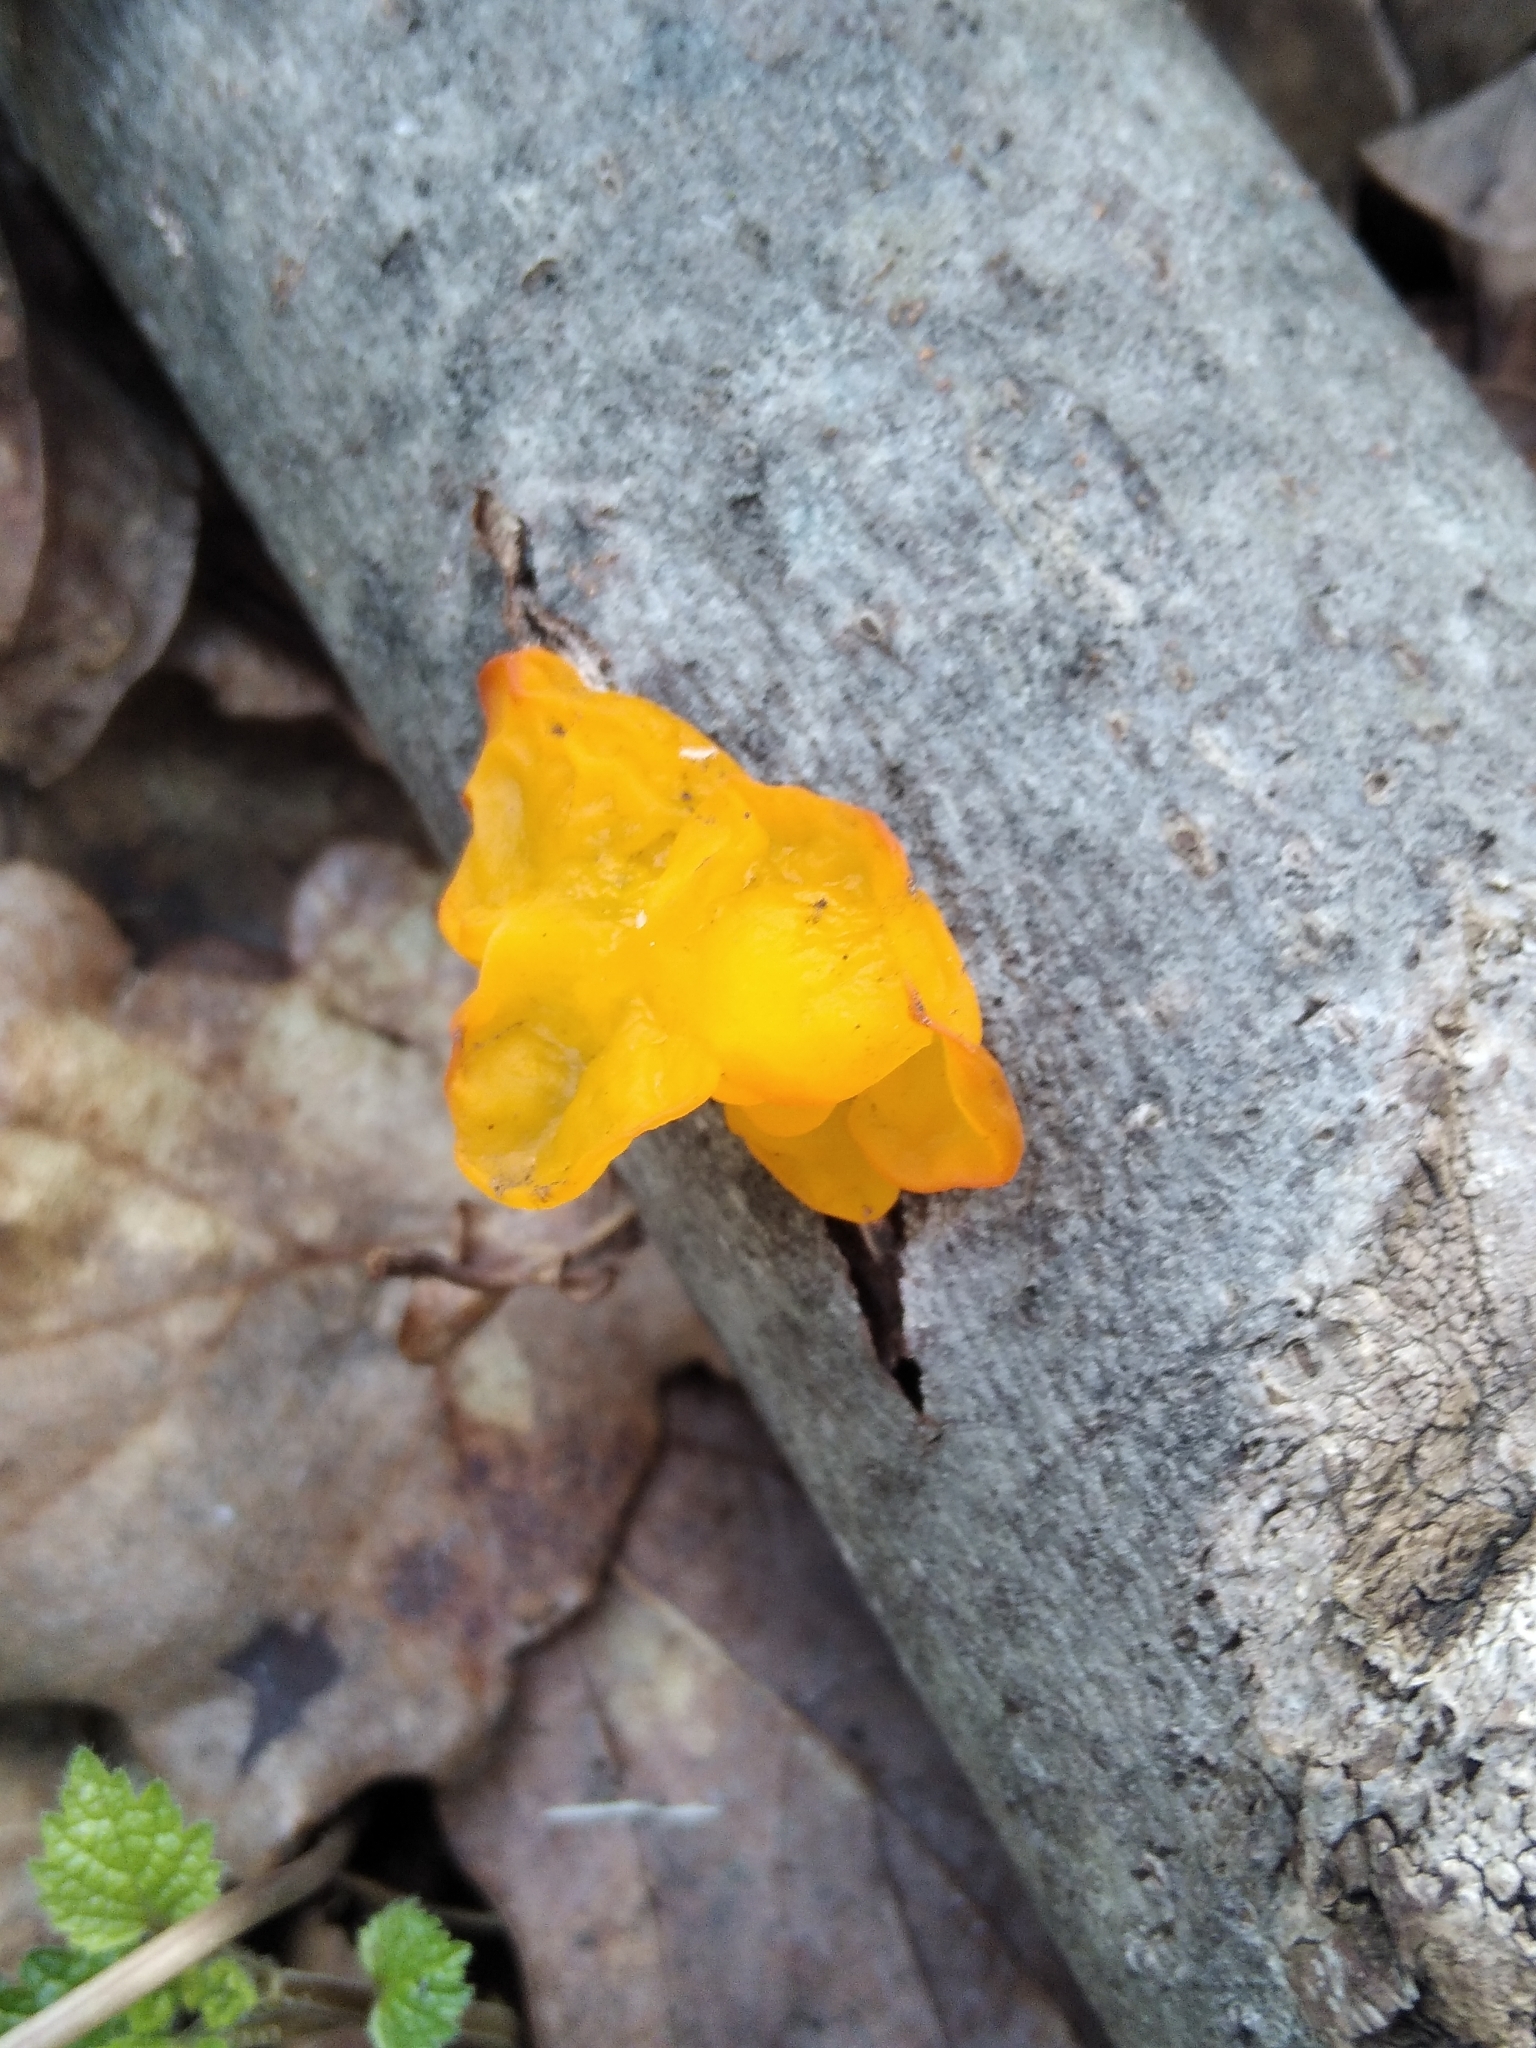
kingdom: Fungi
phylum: Basidiomycota
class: Tremellomycetes
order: Tremellales
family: Tremellaceae
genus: Tremella
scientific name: Tremella mesenterica
